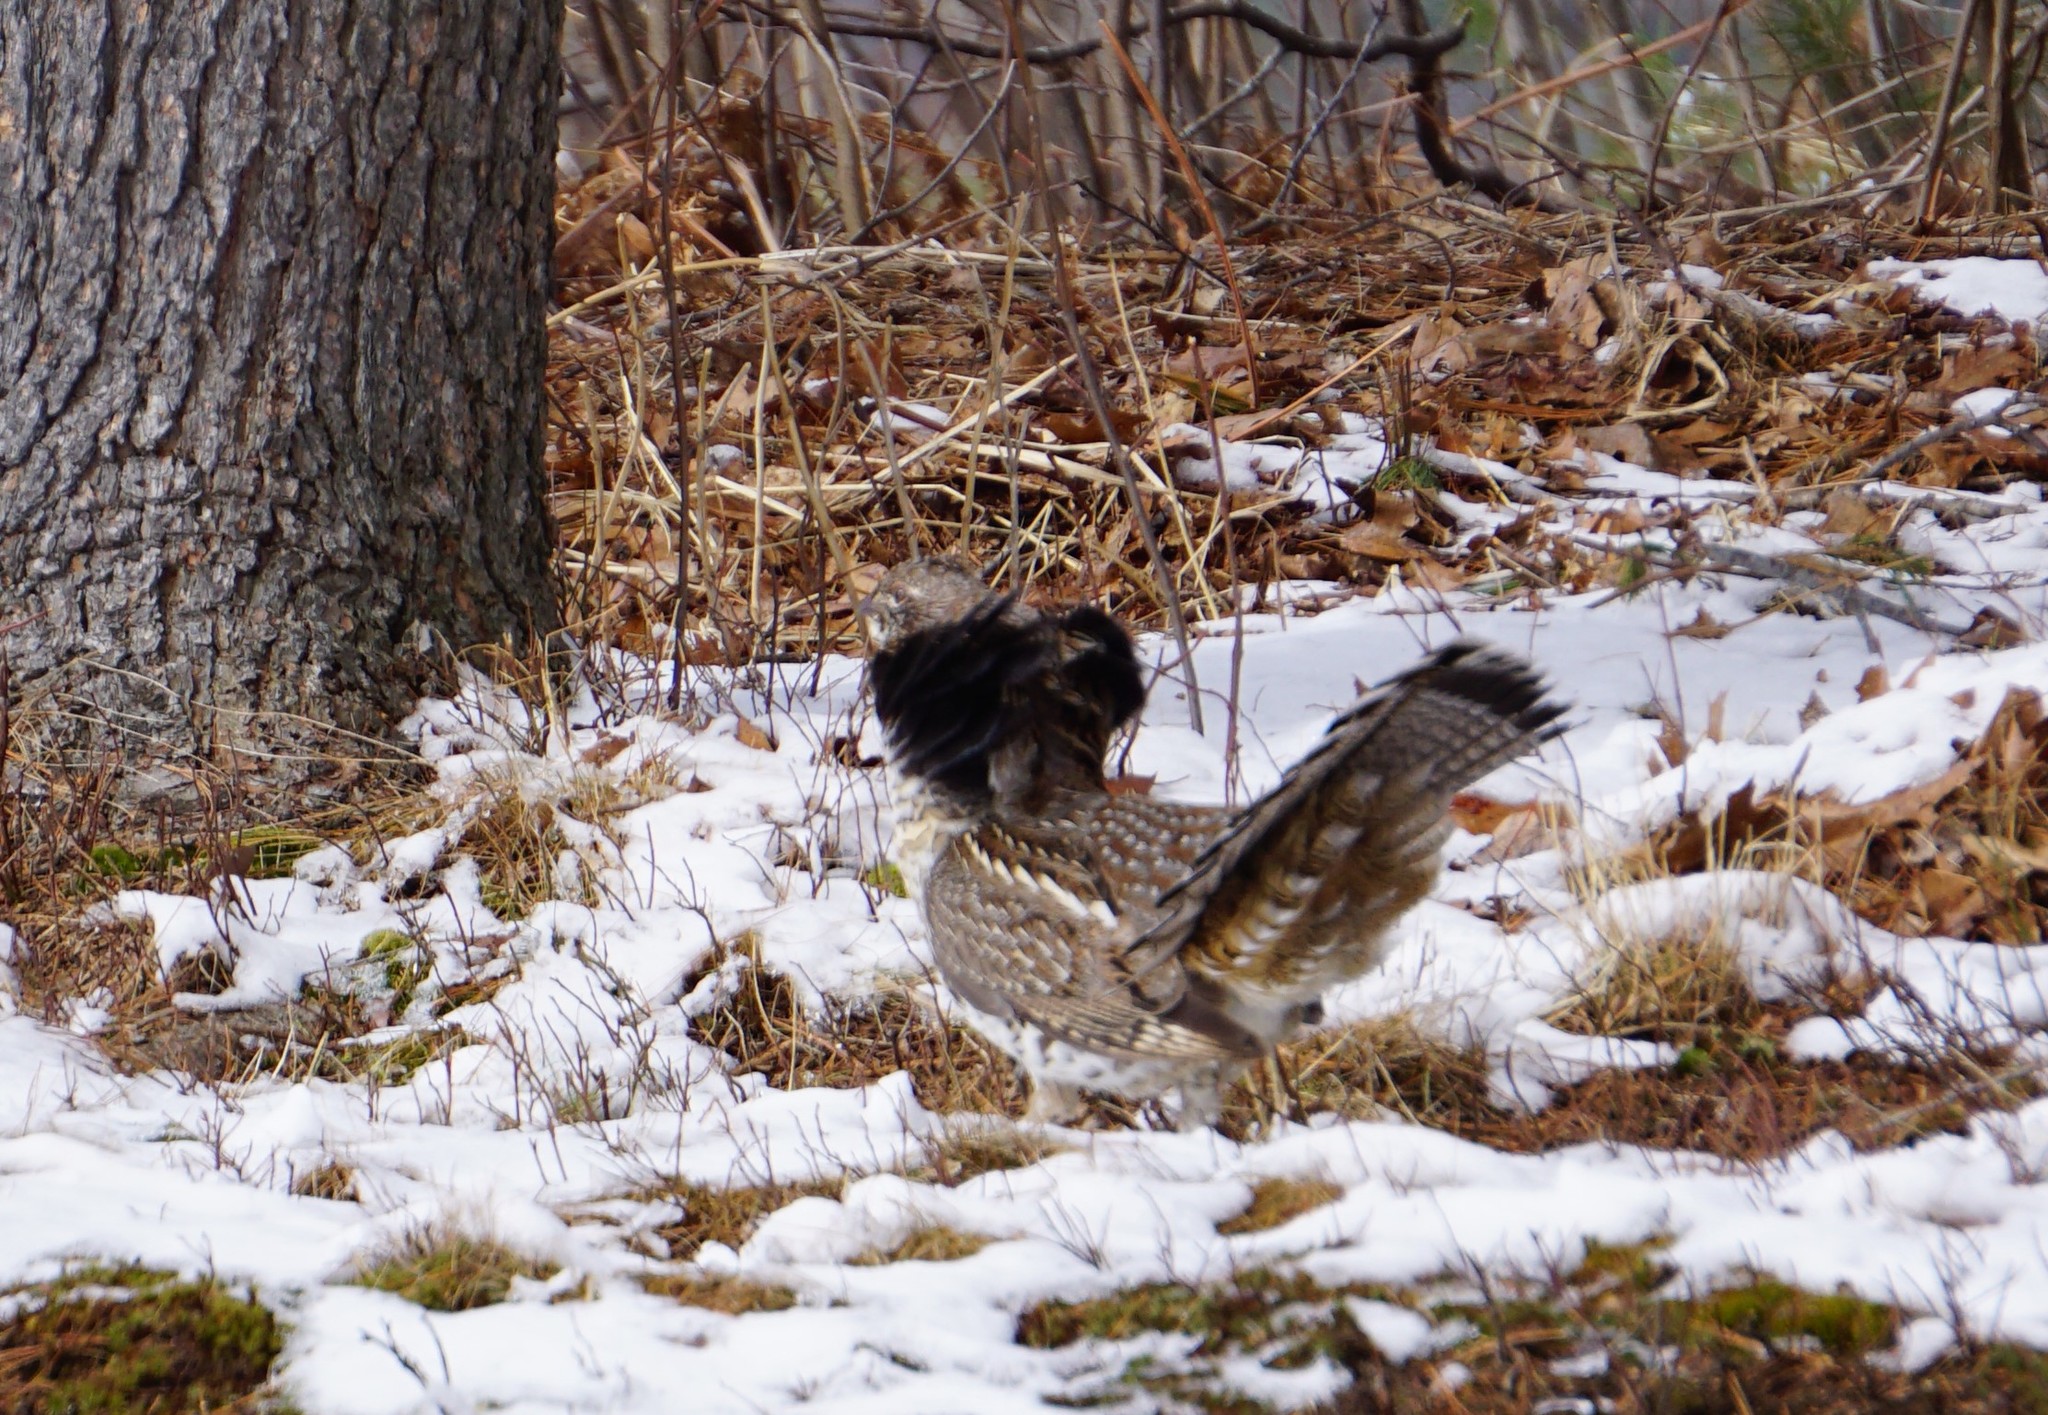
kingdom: Animalia
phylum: Chordata
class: Aves
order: Galliformes
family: Phasianidae
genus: Bonasa
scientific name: Bonasa umbellus
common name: Ruffed grouse
